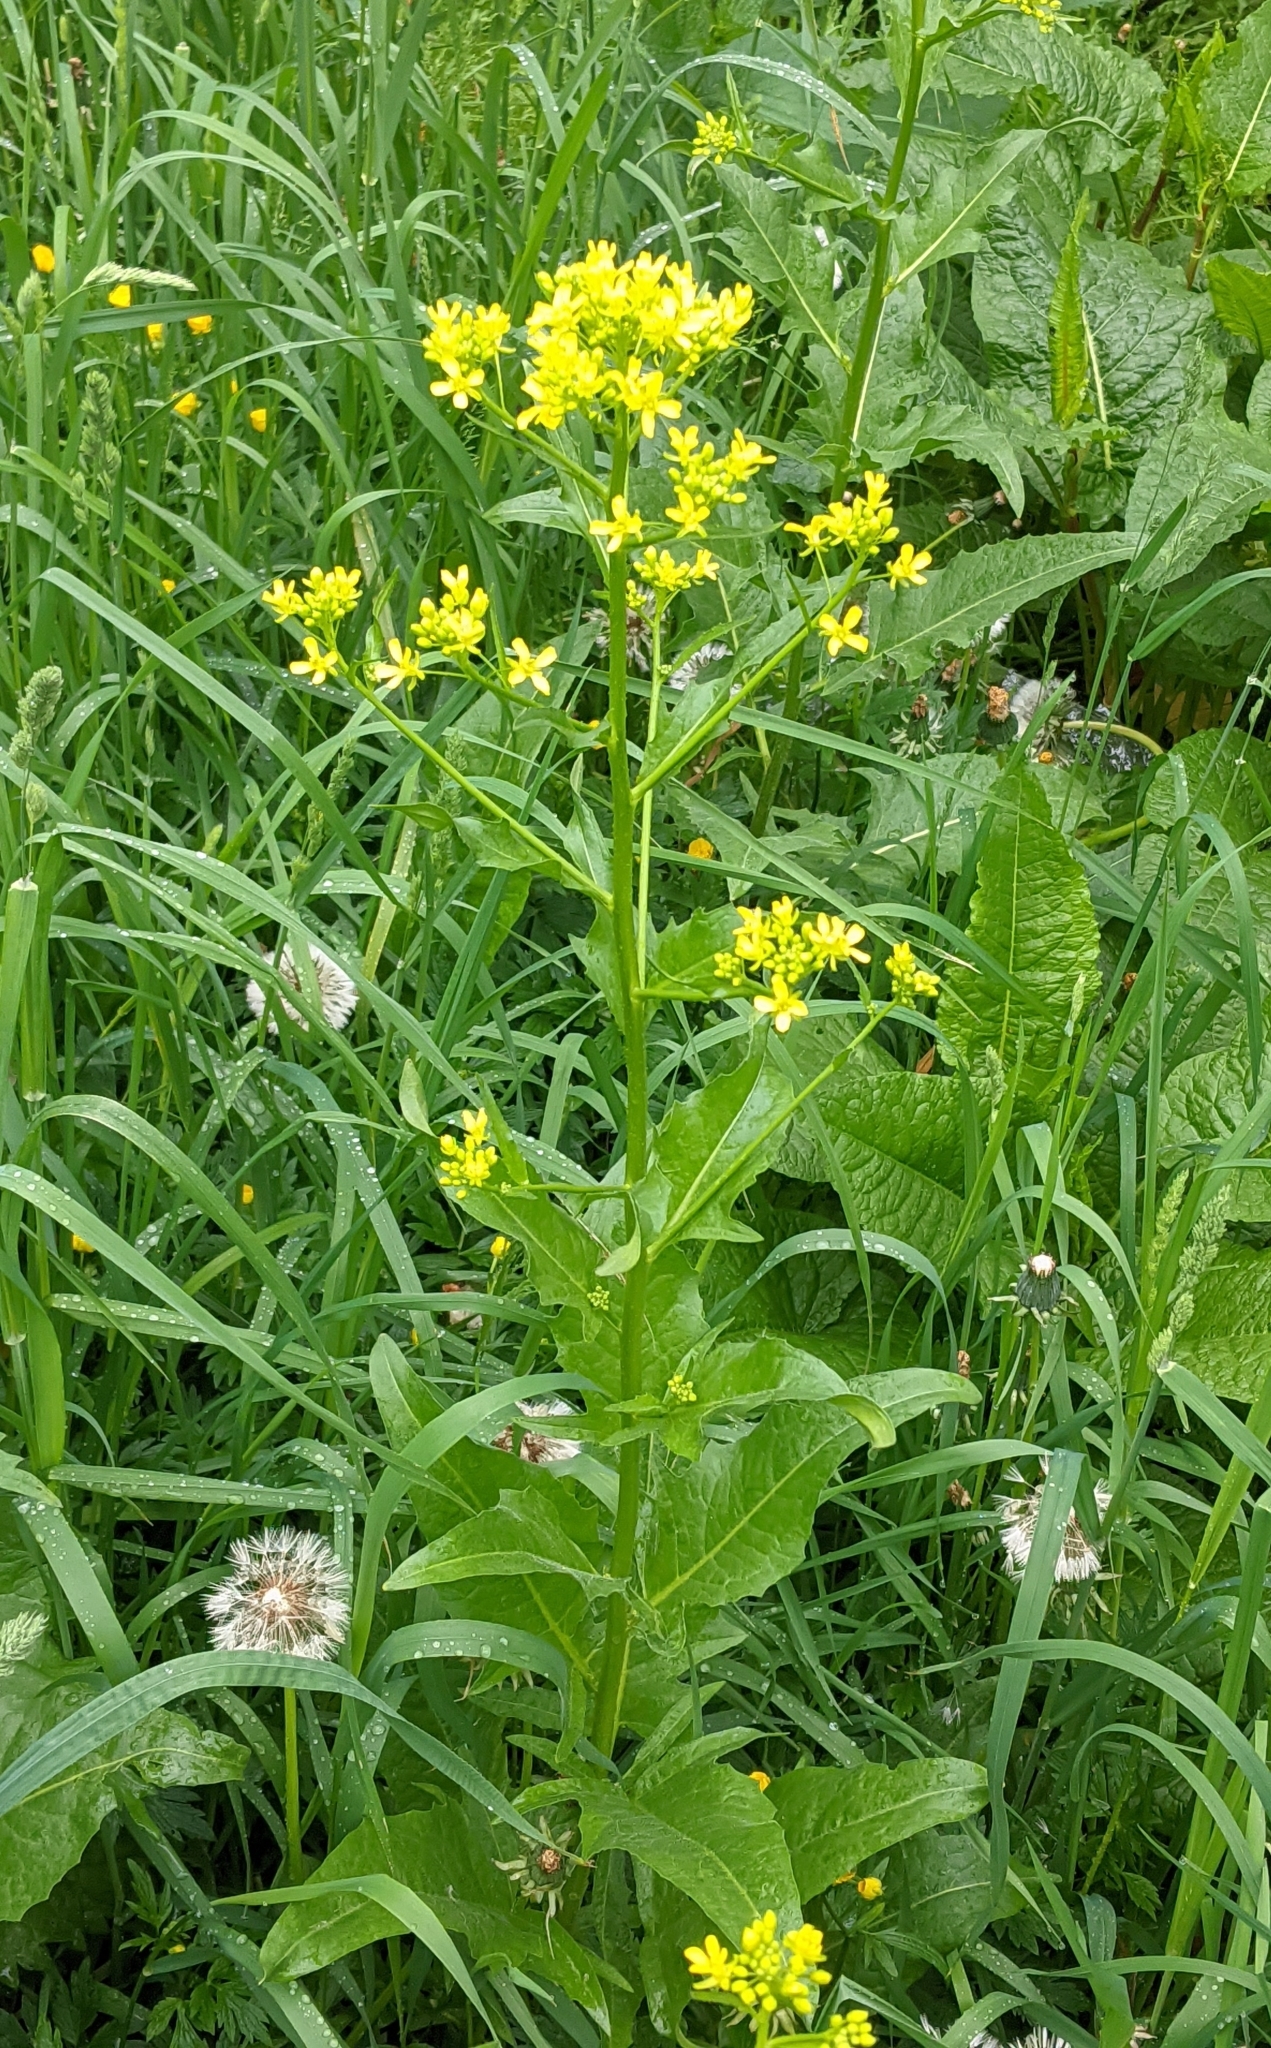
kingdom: Plantae
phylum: Tracheophyta
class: Magnoliopsida
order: Brassicales
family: Brassicaceae
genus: Bunias
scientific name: Bunias orientalis
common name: Warty-cabbage
